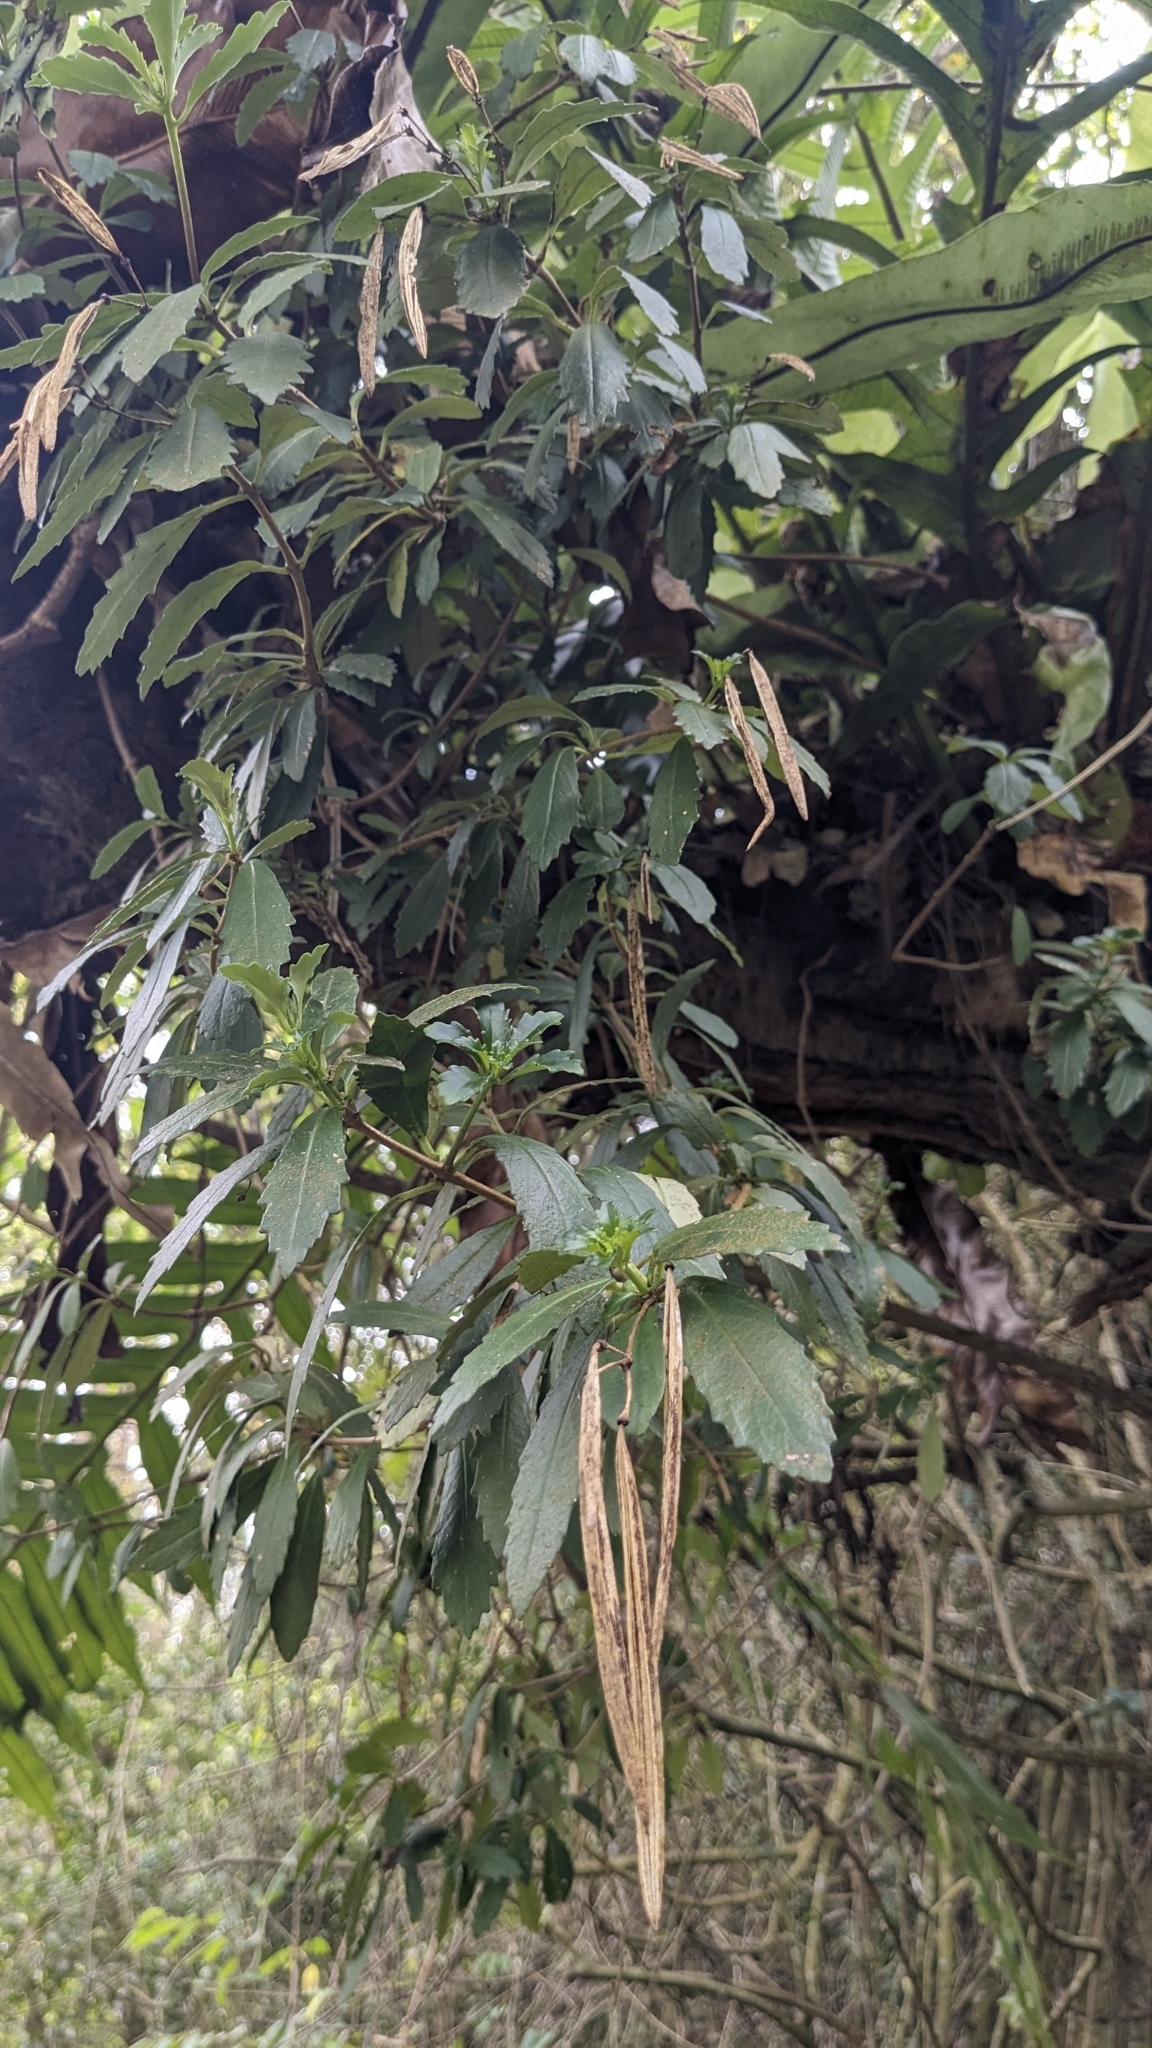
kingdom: Plantae
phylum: Tracheophyta
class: Magnoliopsida
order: Lamiales
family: Gesneriaceae
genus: Lysionotus
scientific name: Lysionotus pauciflorus
